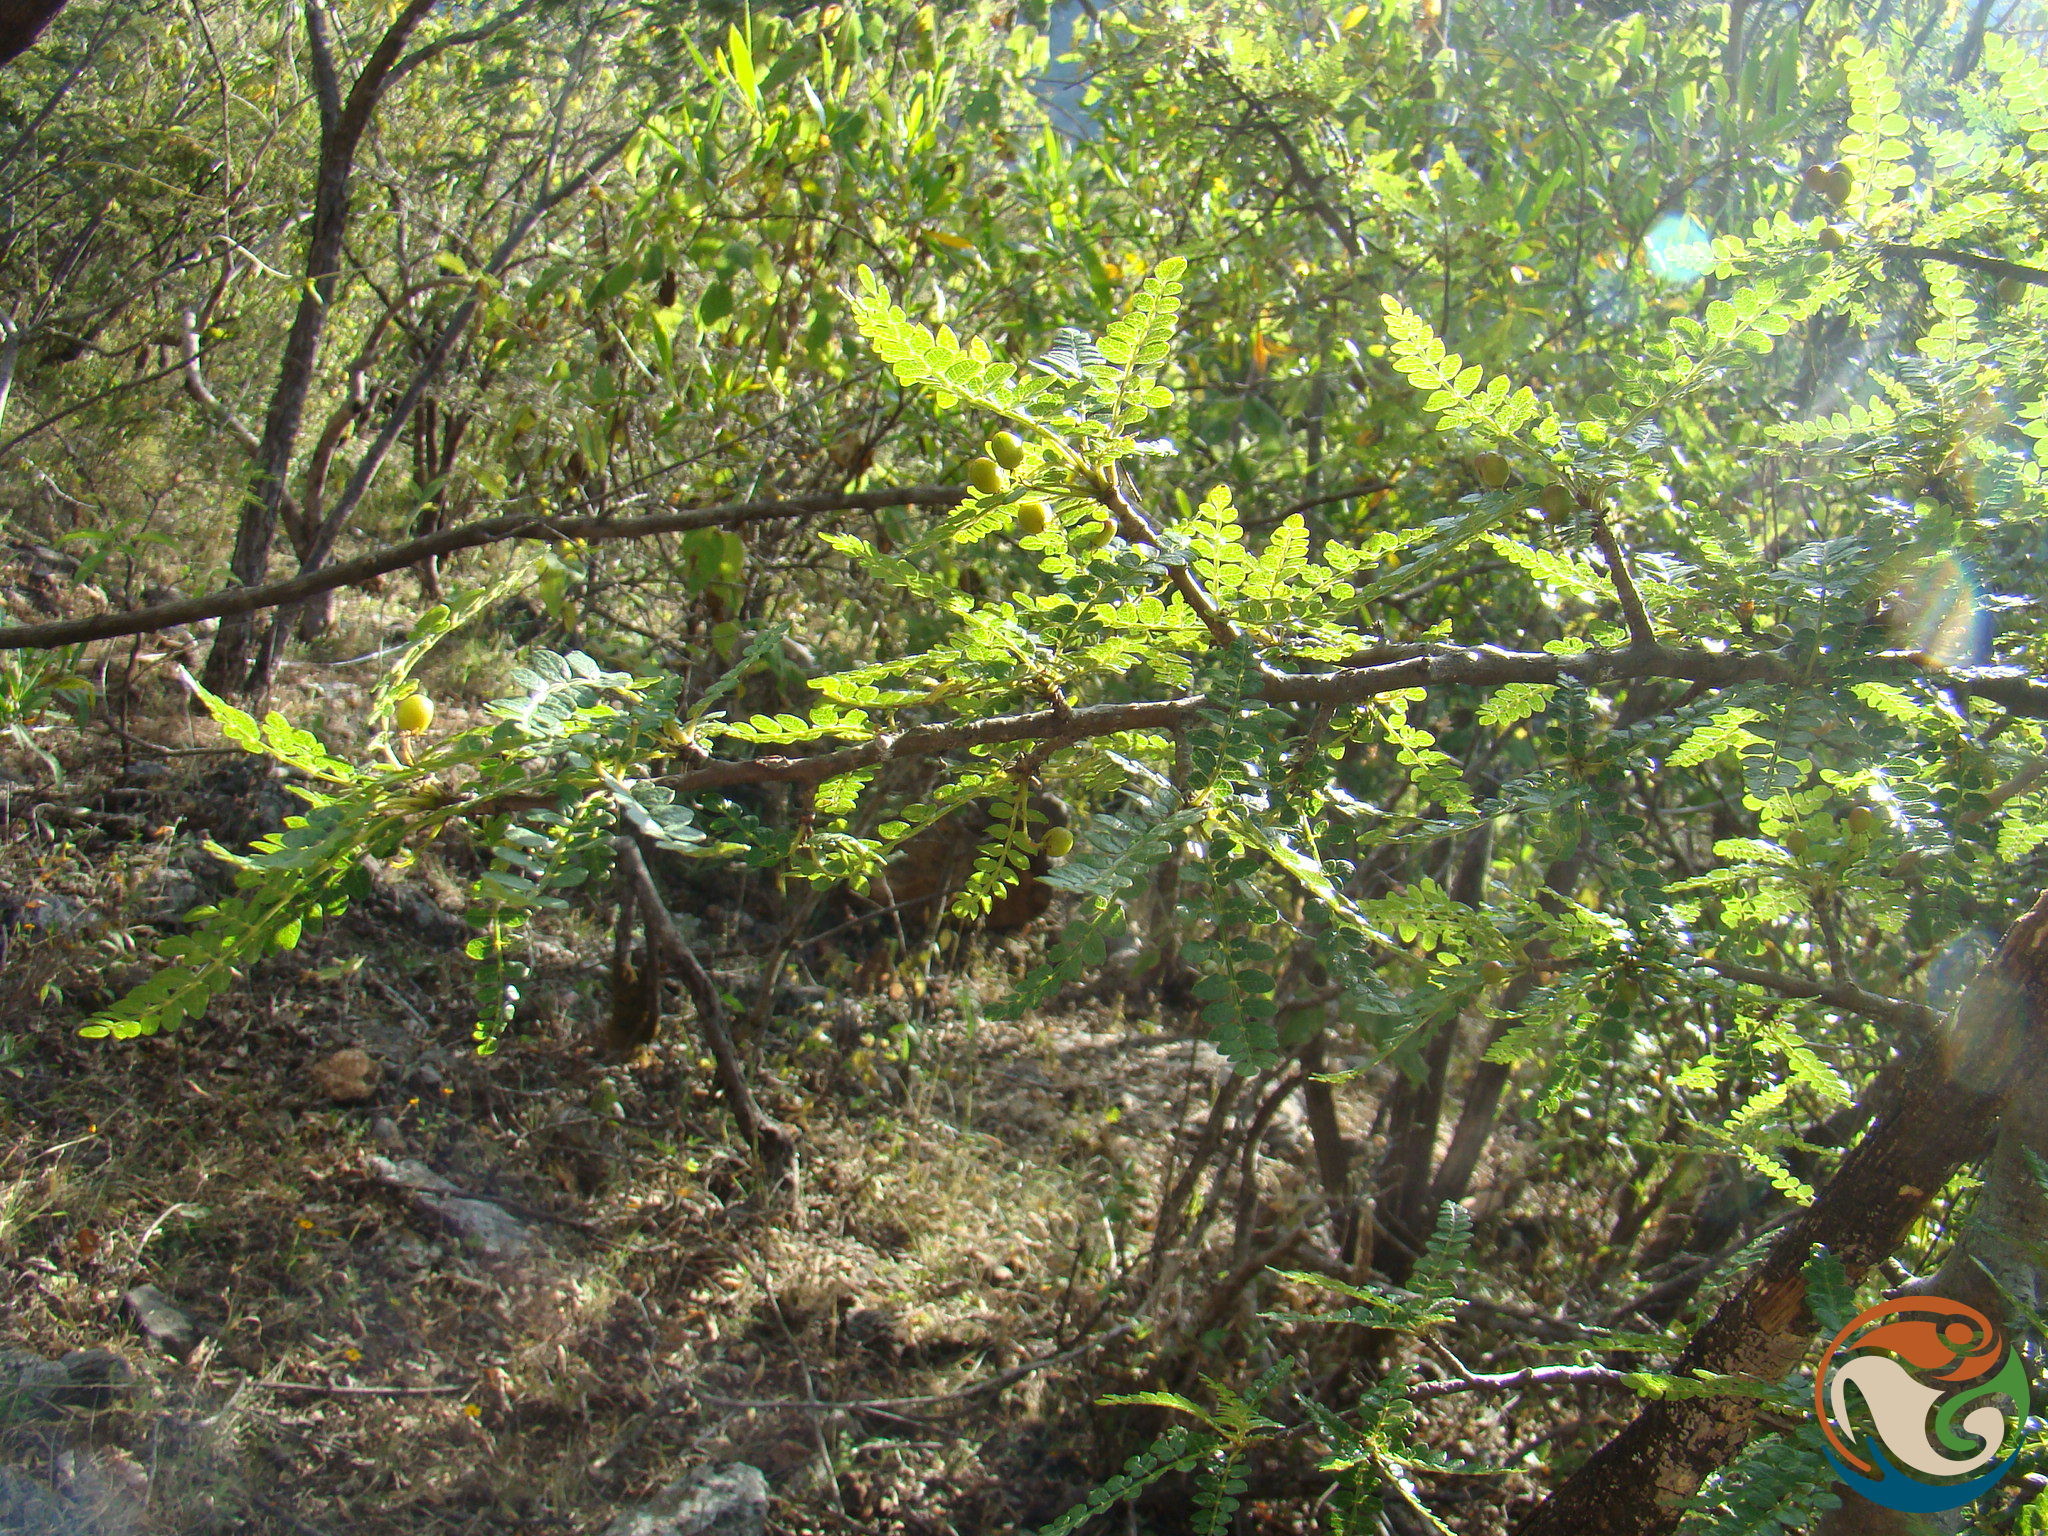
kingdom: Plantae
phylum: Tracheophyta
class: Magnoliopsida
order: Sapindales
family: Burseraceae
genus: Bursera
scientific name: Bursera bipinnata
